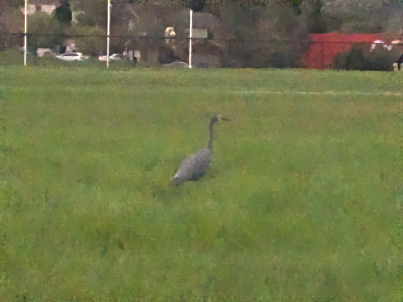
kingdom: Animalia
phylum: Chordata
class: Aves
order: Pelecaniformes
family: Ardeidae
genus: Egretta
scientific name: Egretta novaehollandiae
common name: White-faced heron
